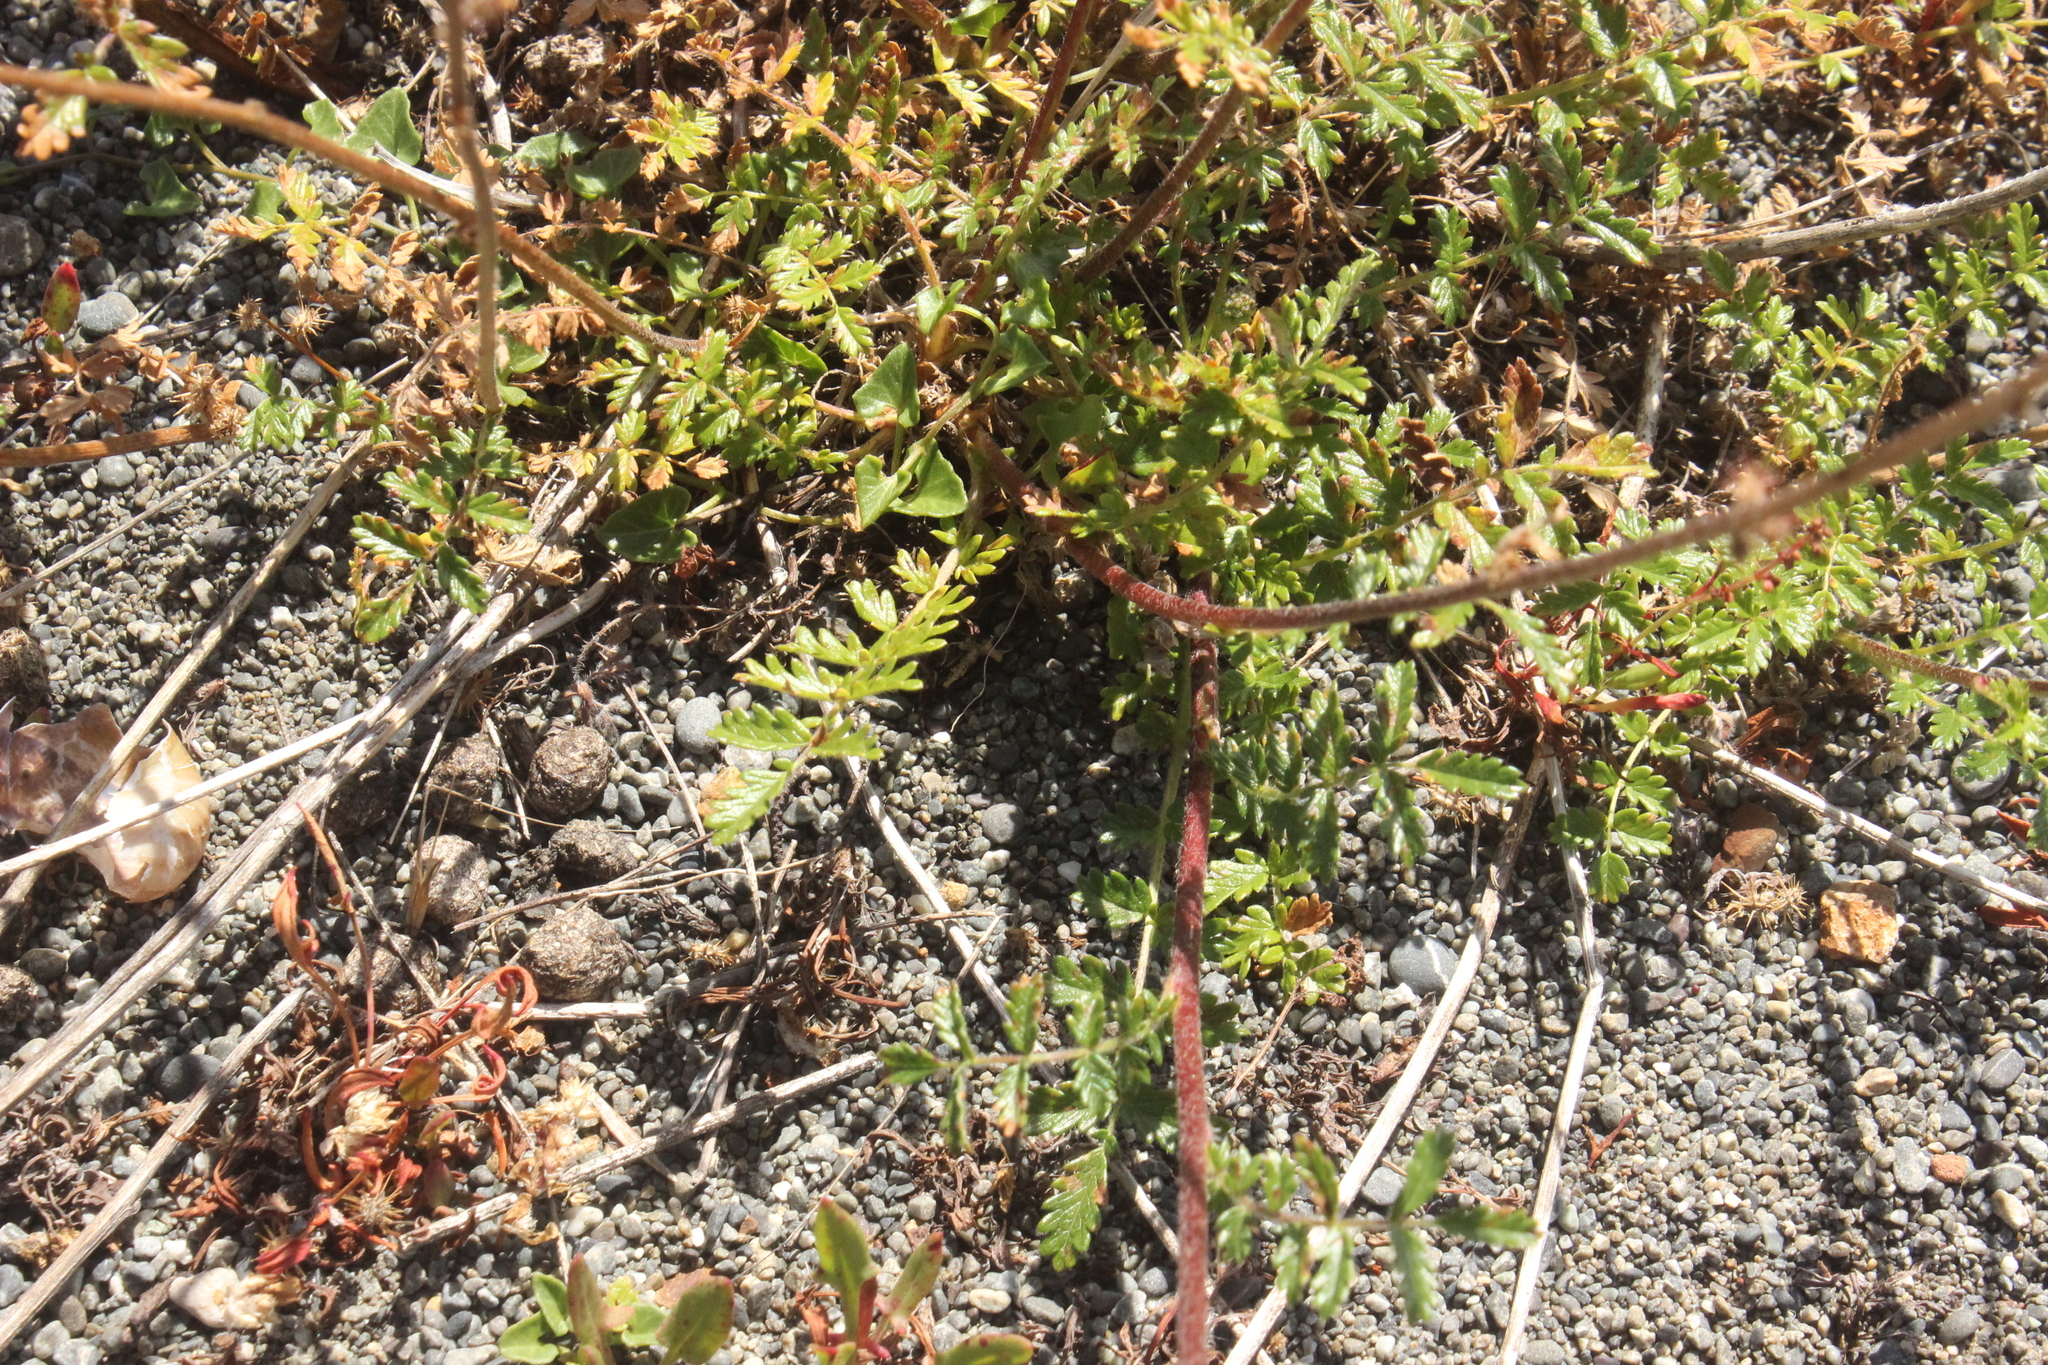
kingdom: Plantae
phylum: Tracheophyta
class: Magnoliopsida
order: Rosales
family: Rosaceae
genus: Acaena
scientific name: Acaena agnipila
